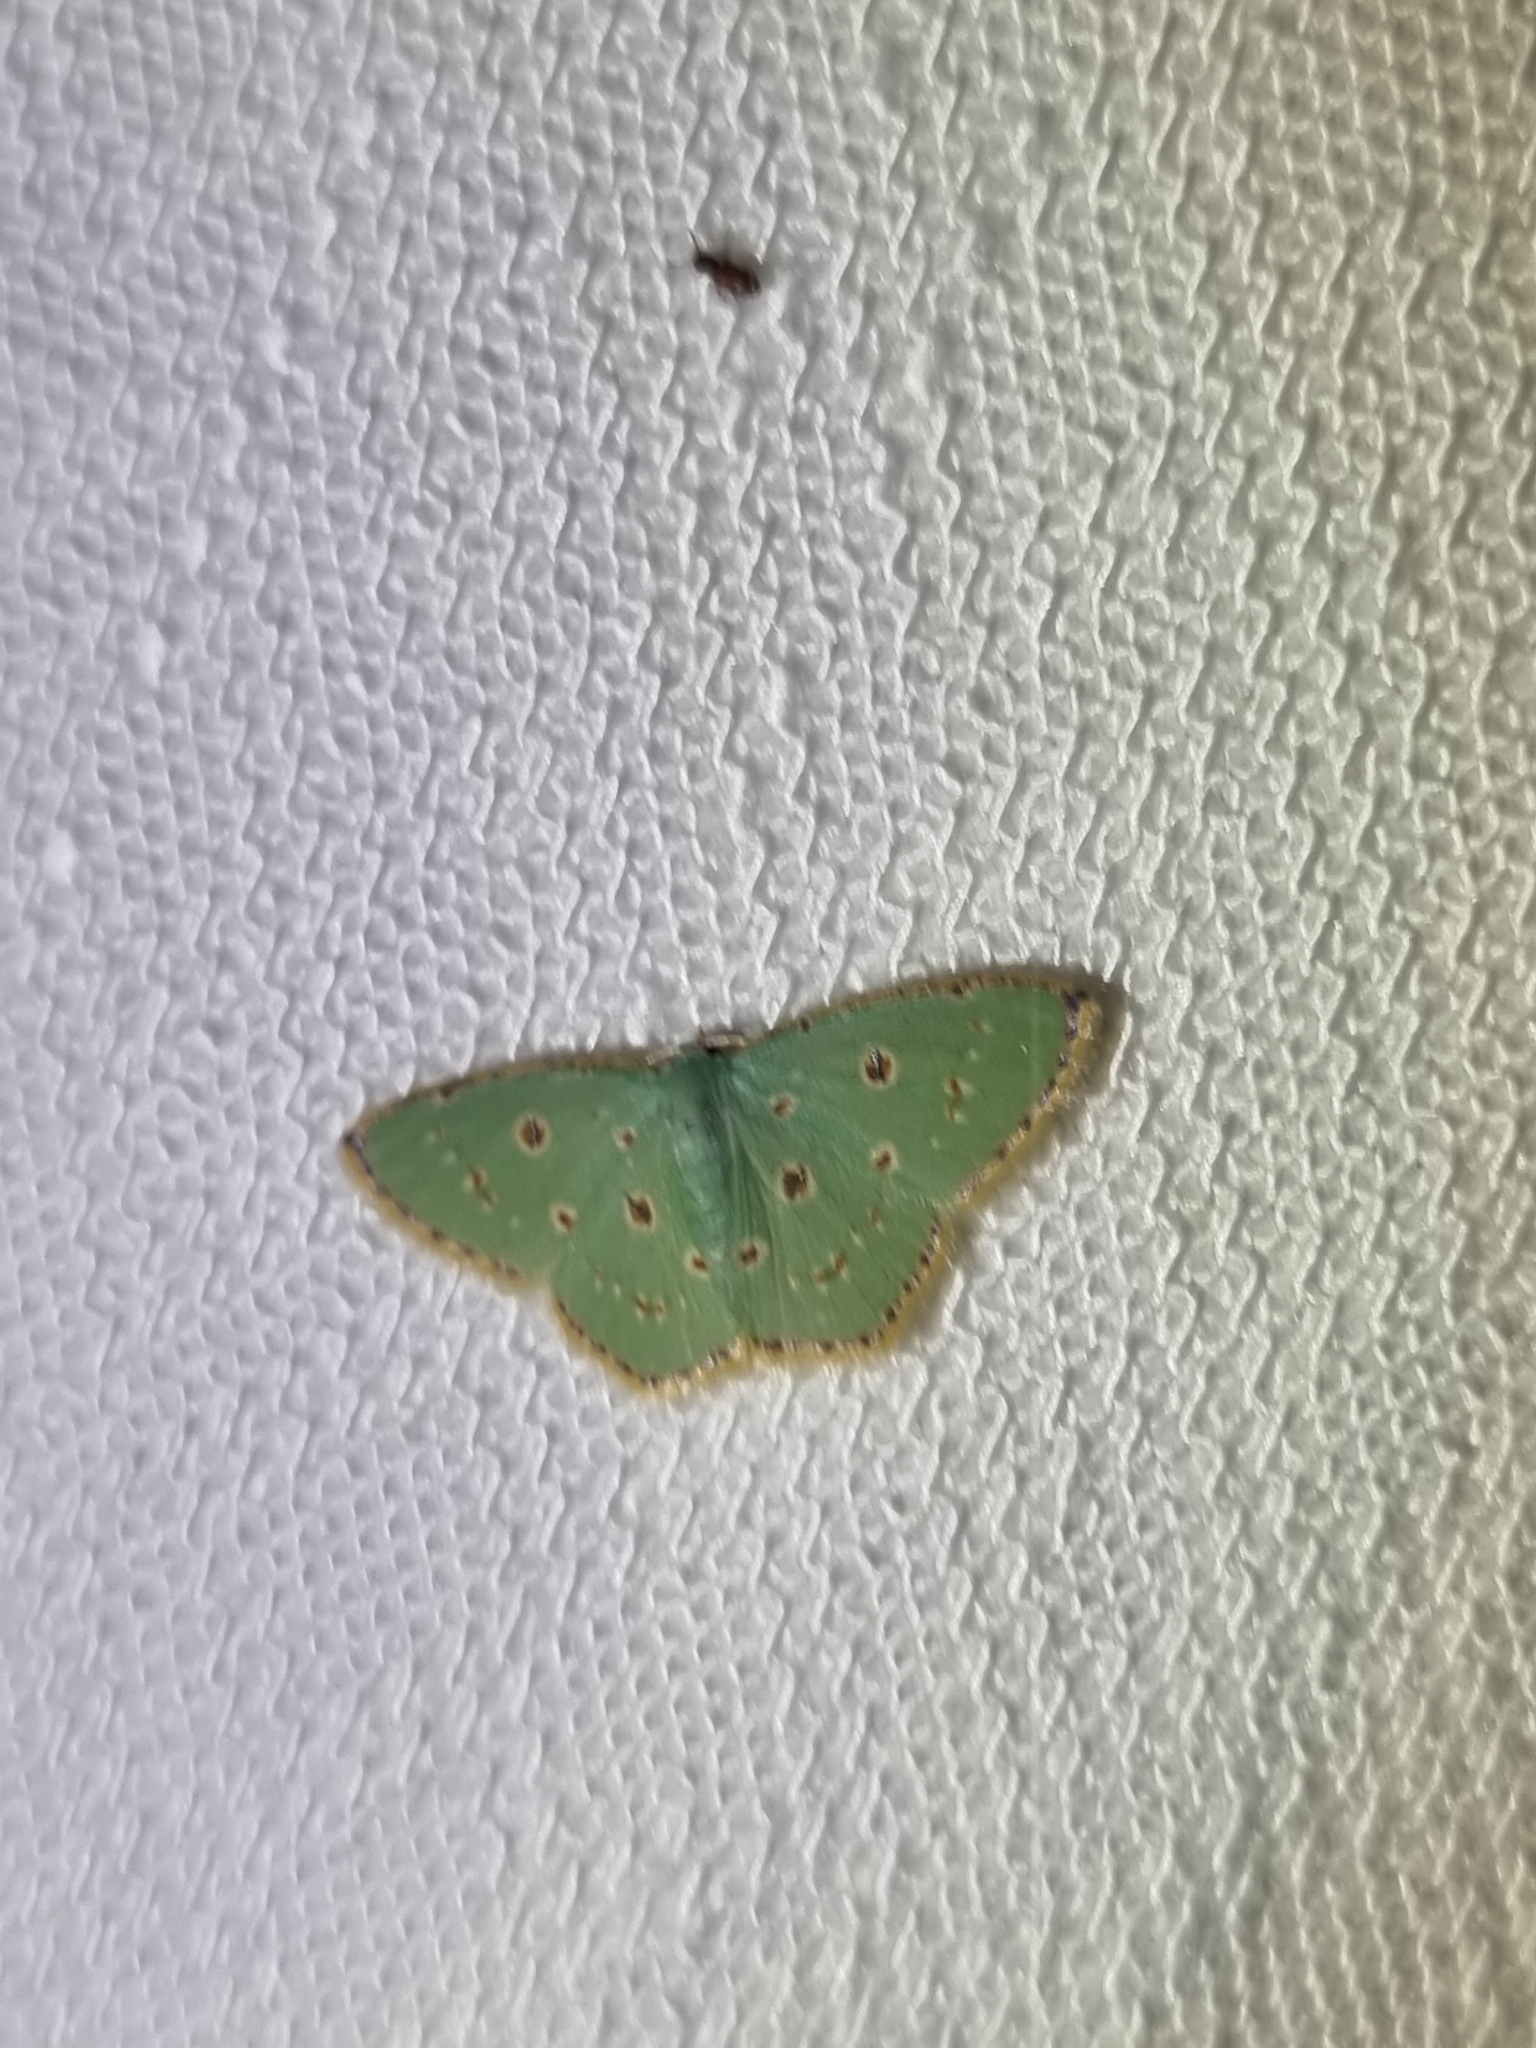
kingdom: Animalia
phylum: Arthropoda
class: Insecta
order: Lepidoptera
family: Geometridae
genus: Comostola
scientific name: Comostola laesaria
